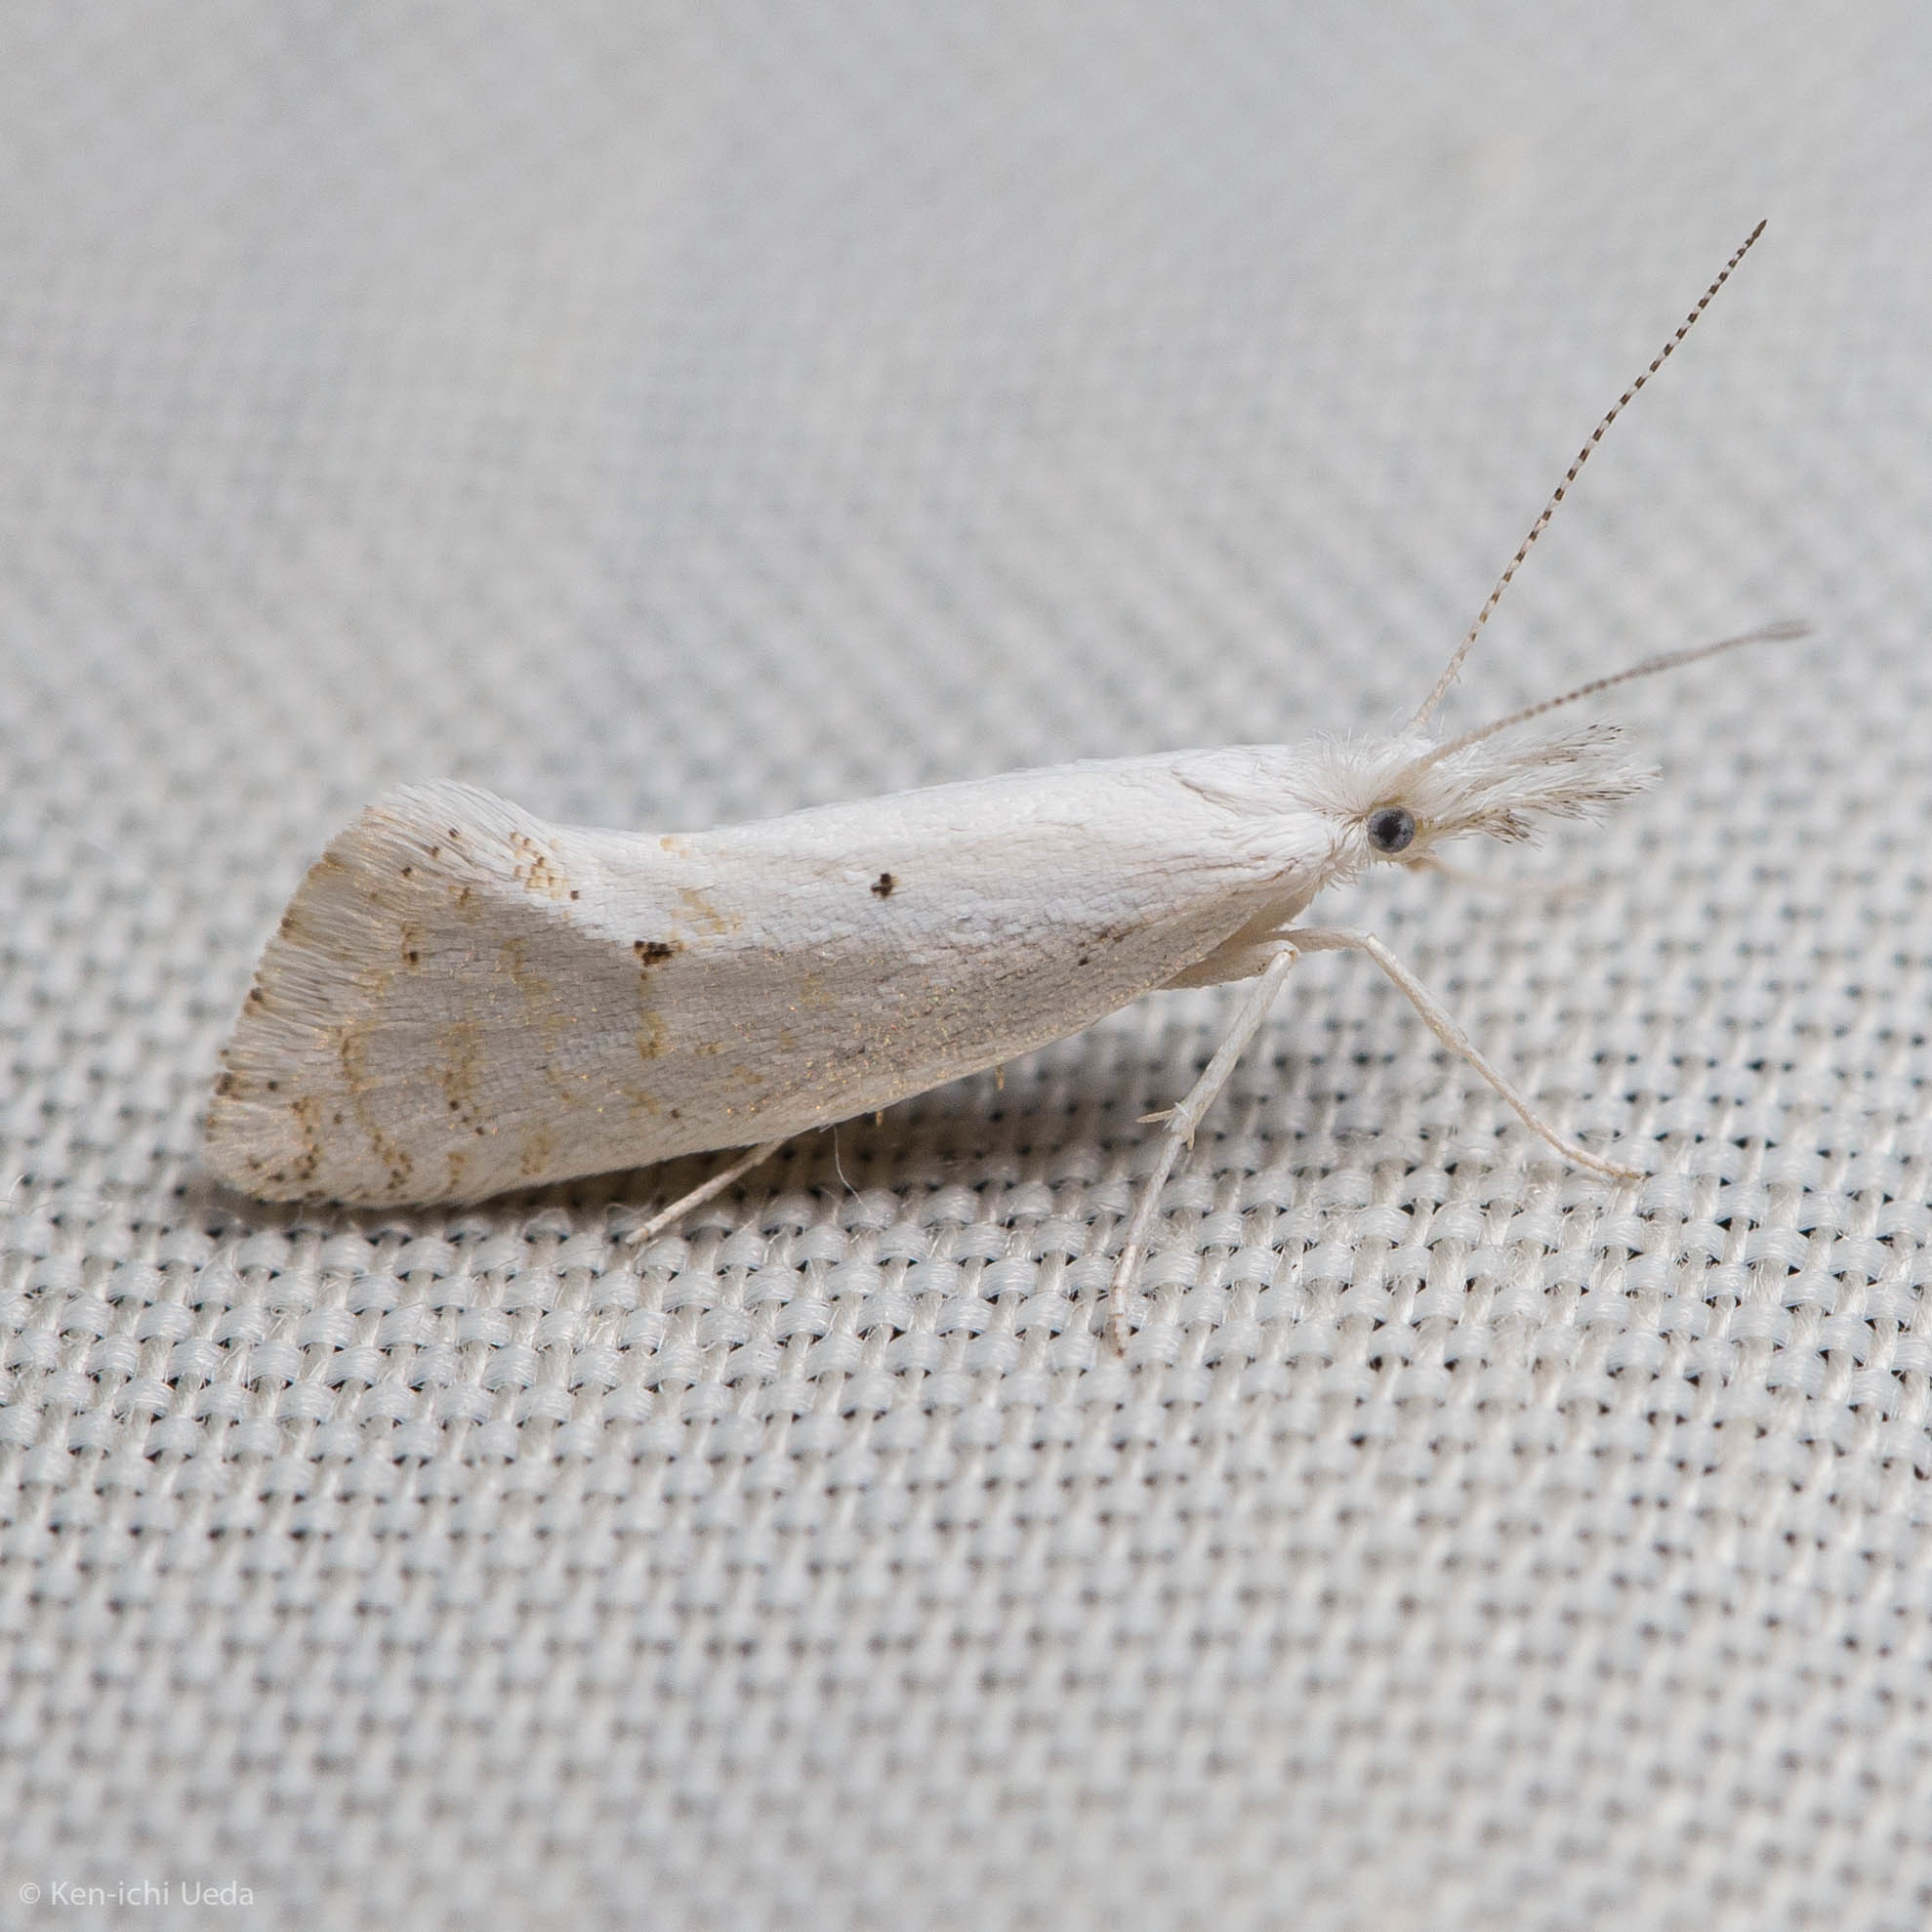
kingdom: Animalia
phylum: Arthropoda
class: Insecta
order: Lepidoptera
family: Ypsolophidae
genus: Euceratia
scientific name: Euceratia castella
